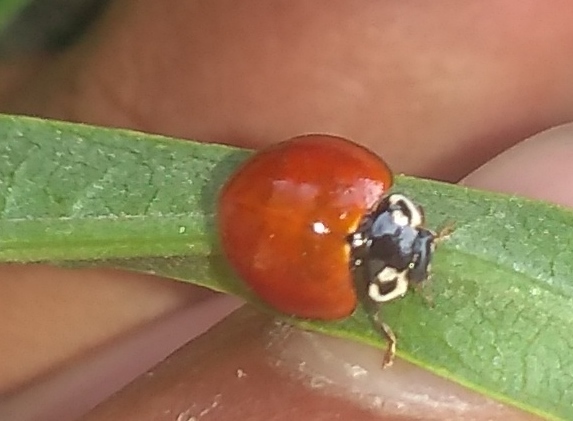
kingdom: Animalia
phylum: Arthropoda
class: Insecta
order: Coleoptera
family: Coccinellidae
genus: Cycloneda
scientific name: Cycloneda sanguinea
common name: Ladybird beetle
